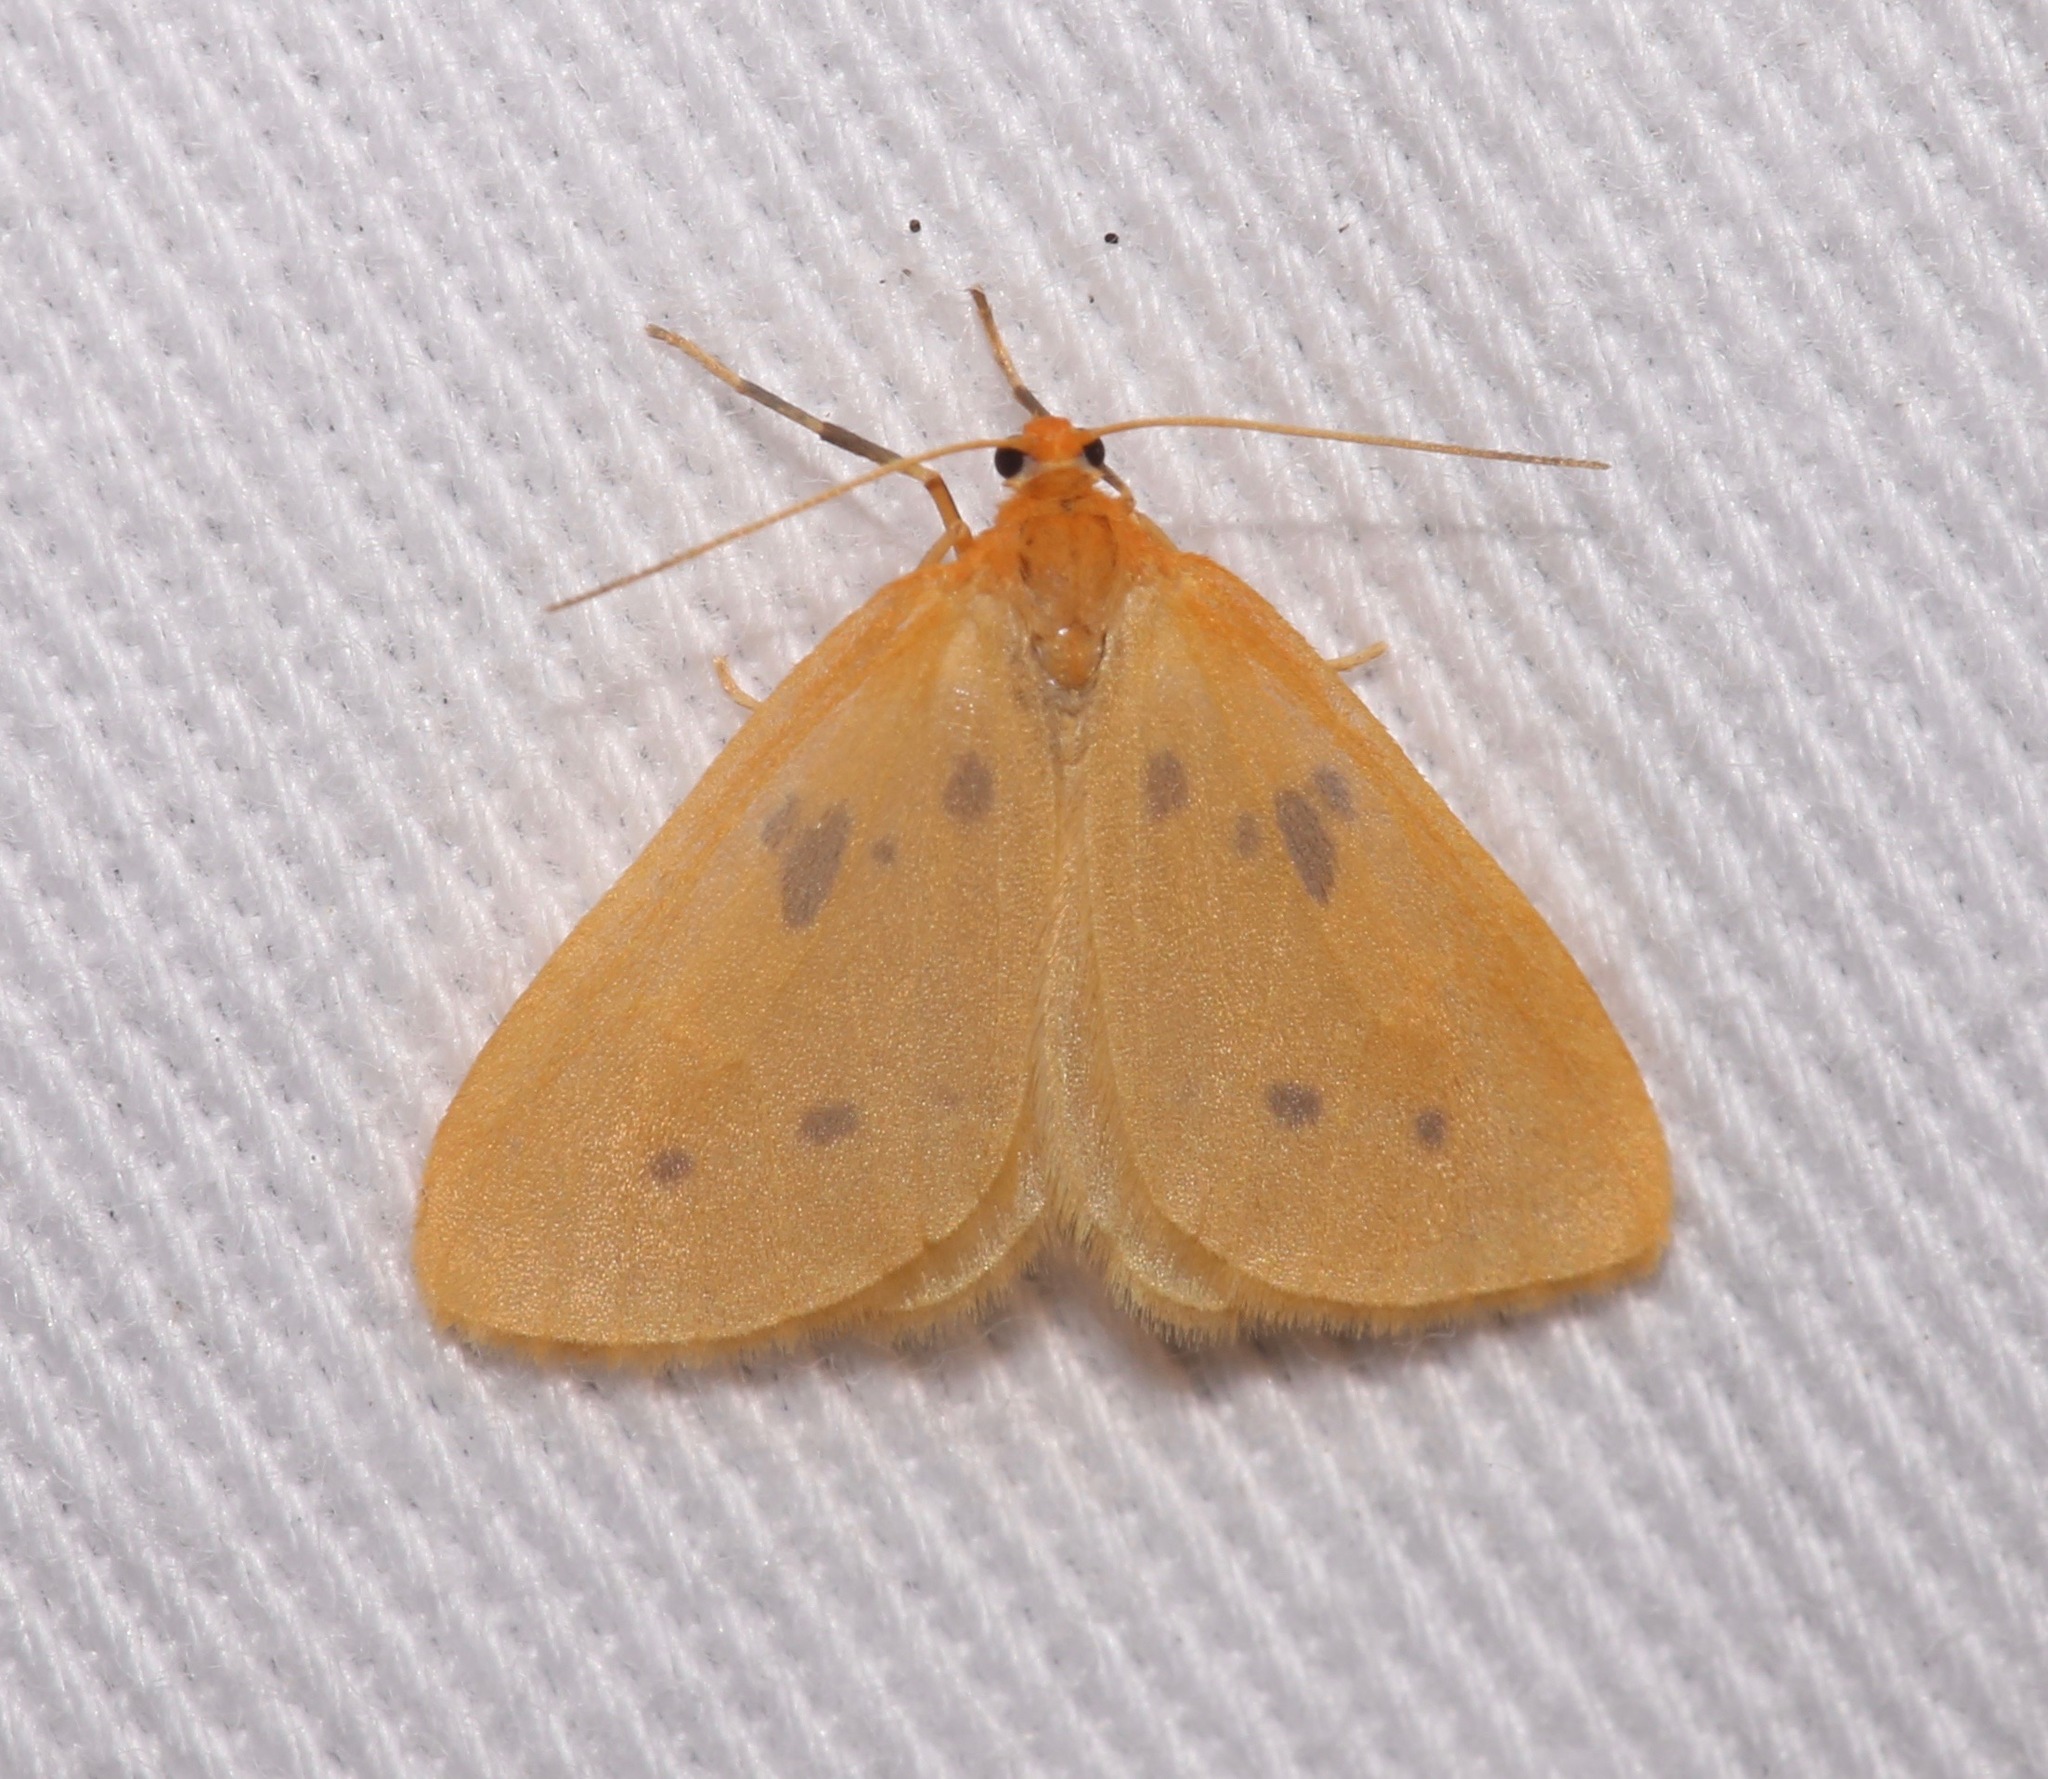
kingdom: Animalia
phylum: Arthropoda
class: Insecta
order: Lepidoptera
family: Geometridae
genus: Eubaphe
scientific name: Eubaphe meridiana
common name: Little beggar
